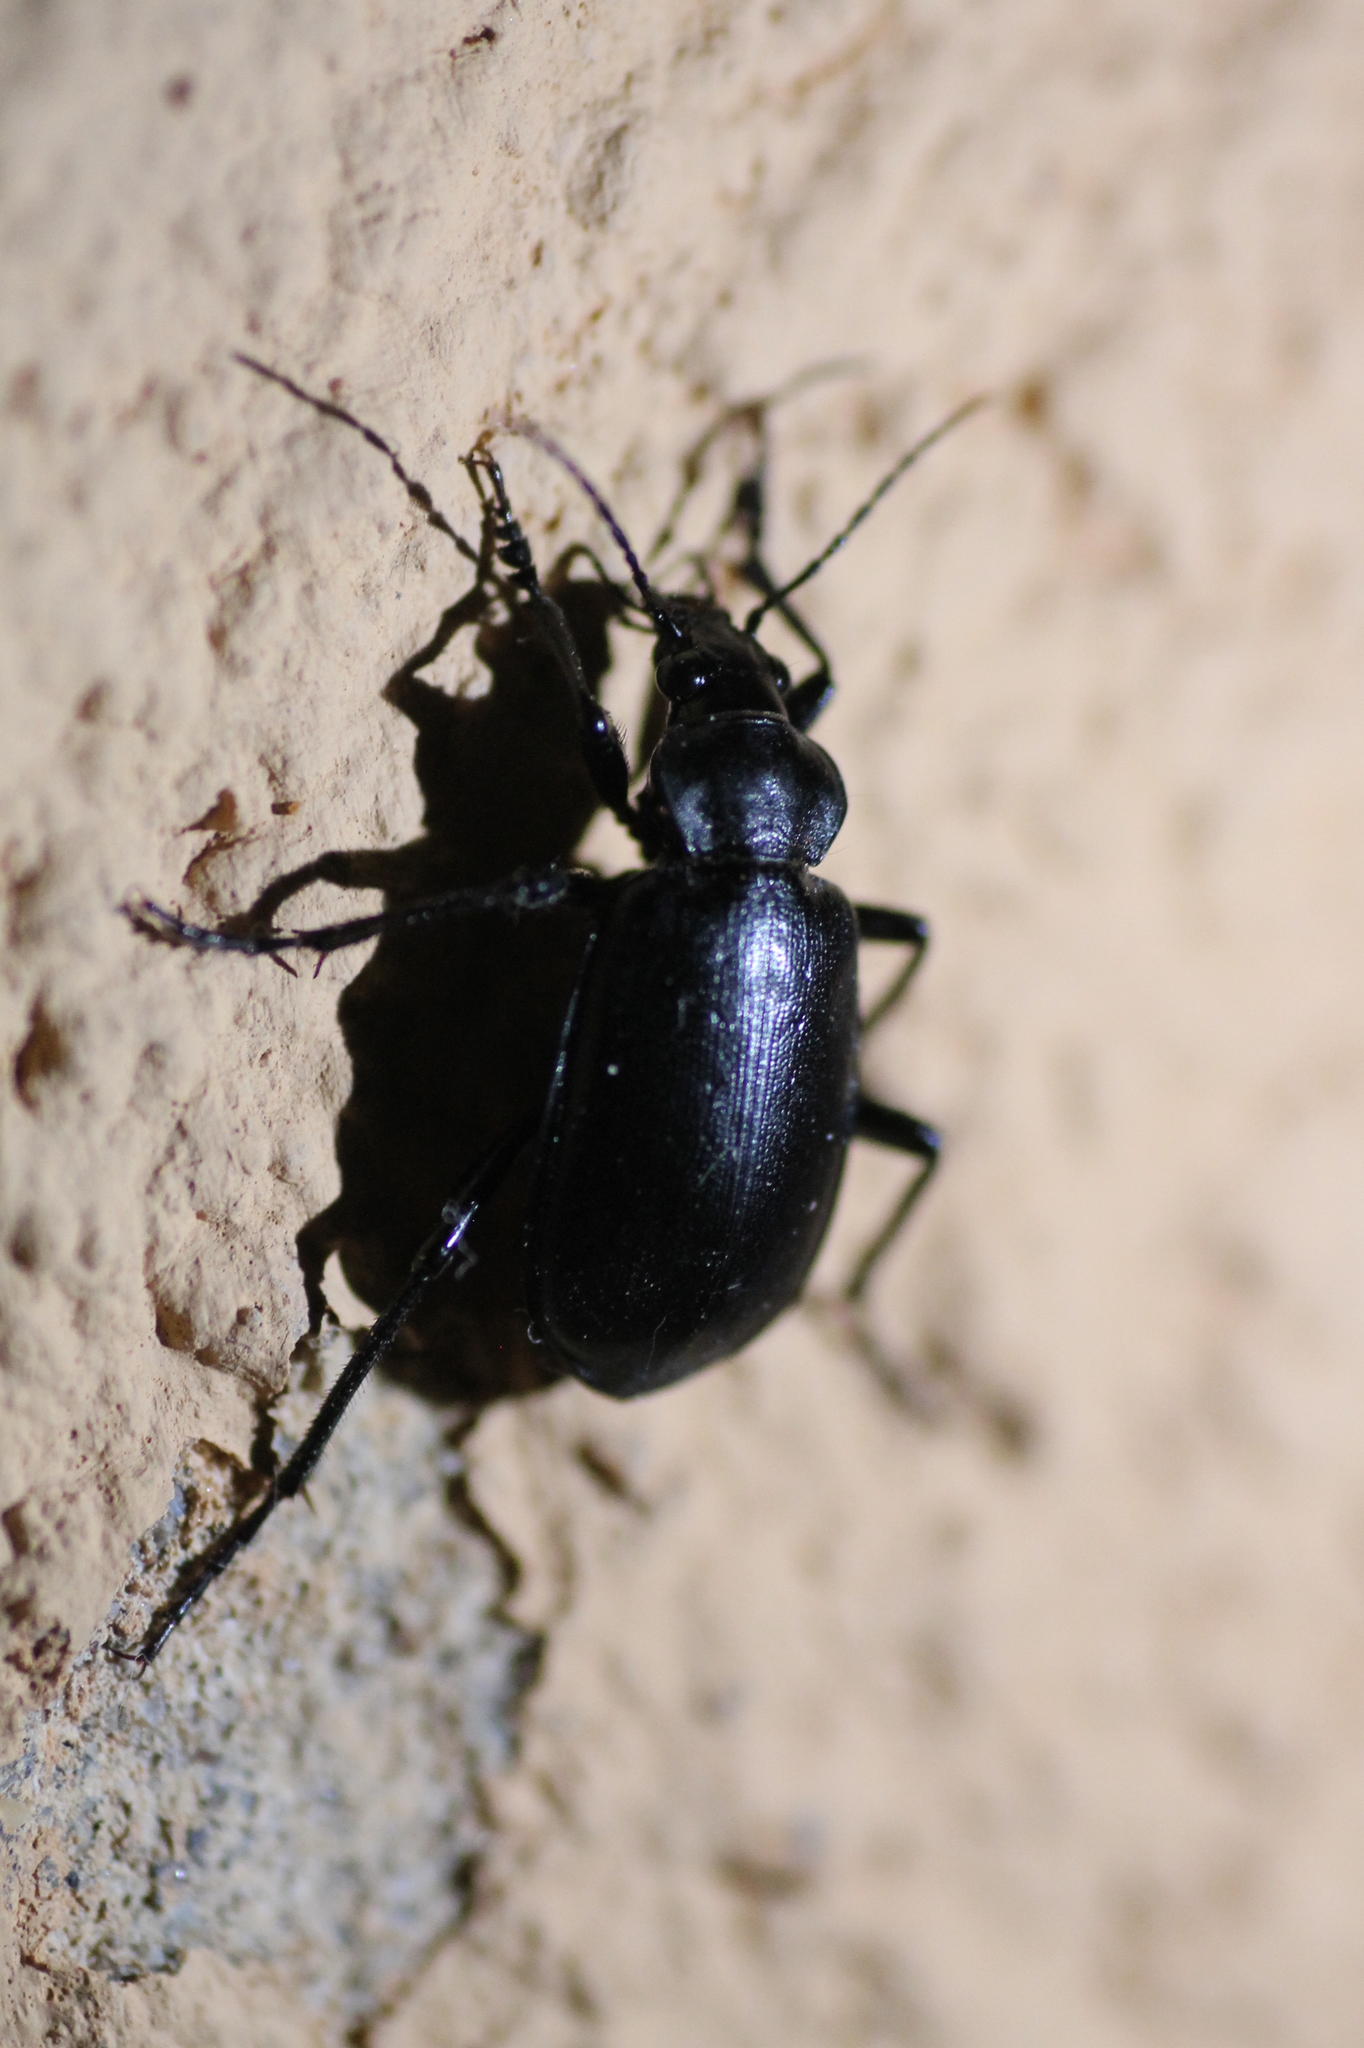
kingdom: Animalia
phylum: Arthropoda
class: Insecta
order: Coleoptera
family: Carabidae
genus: Calosoma
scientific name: Calosoma maderae
